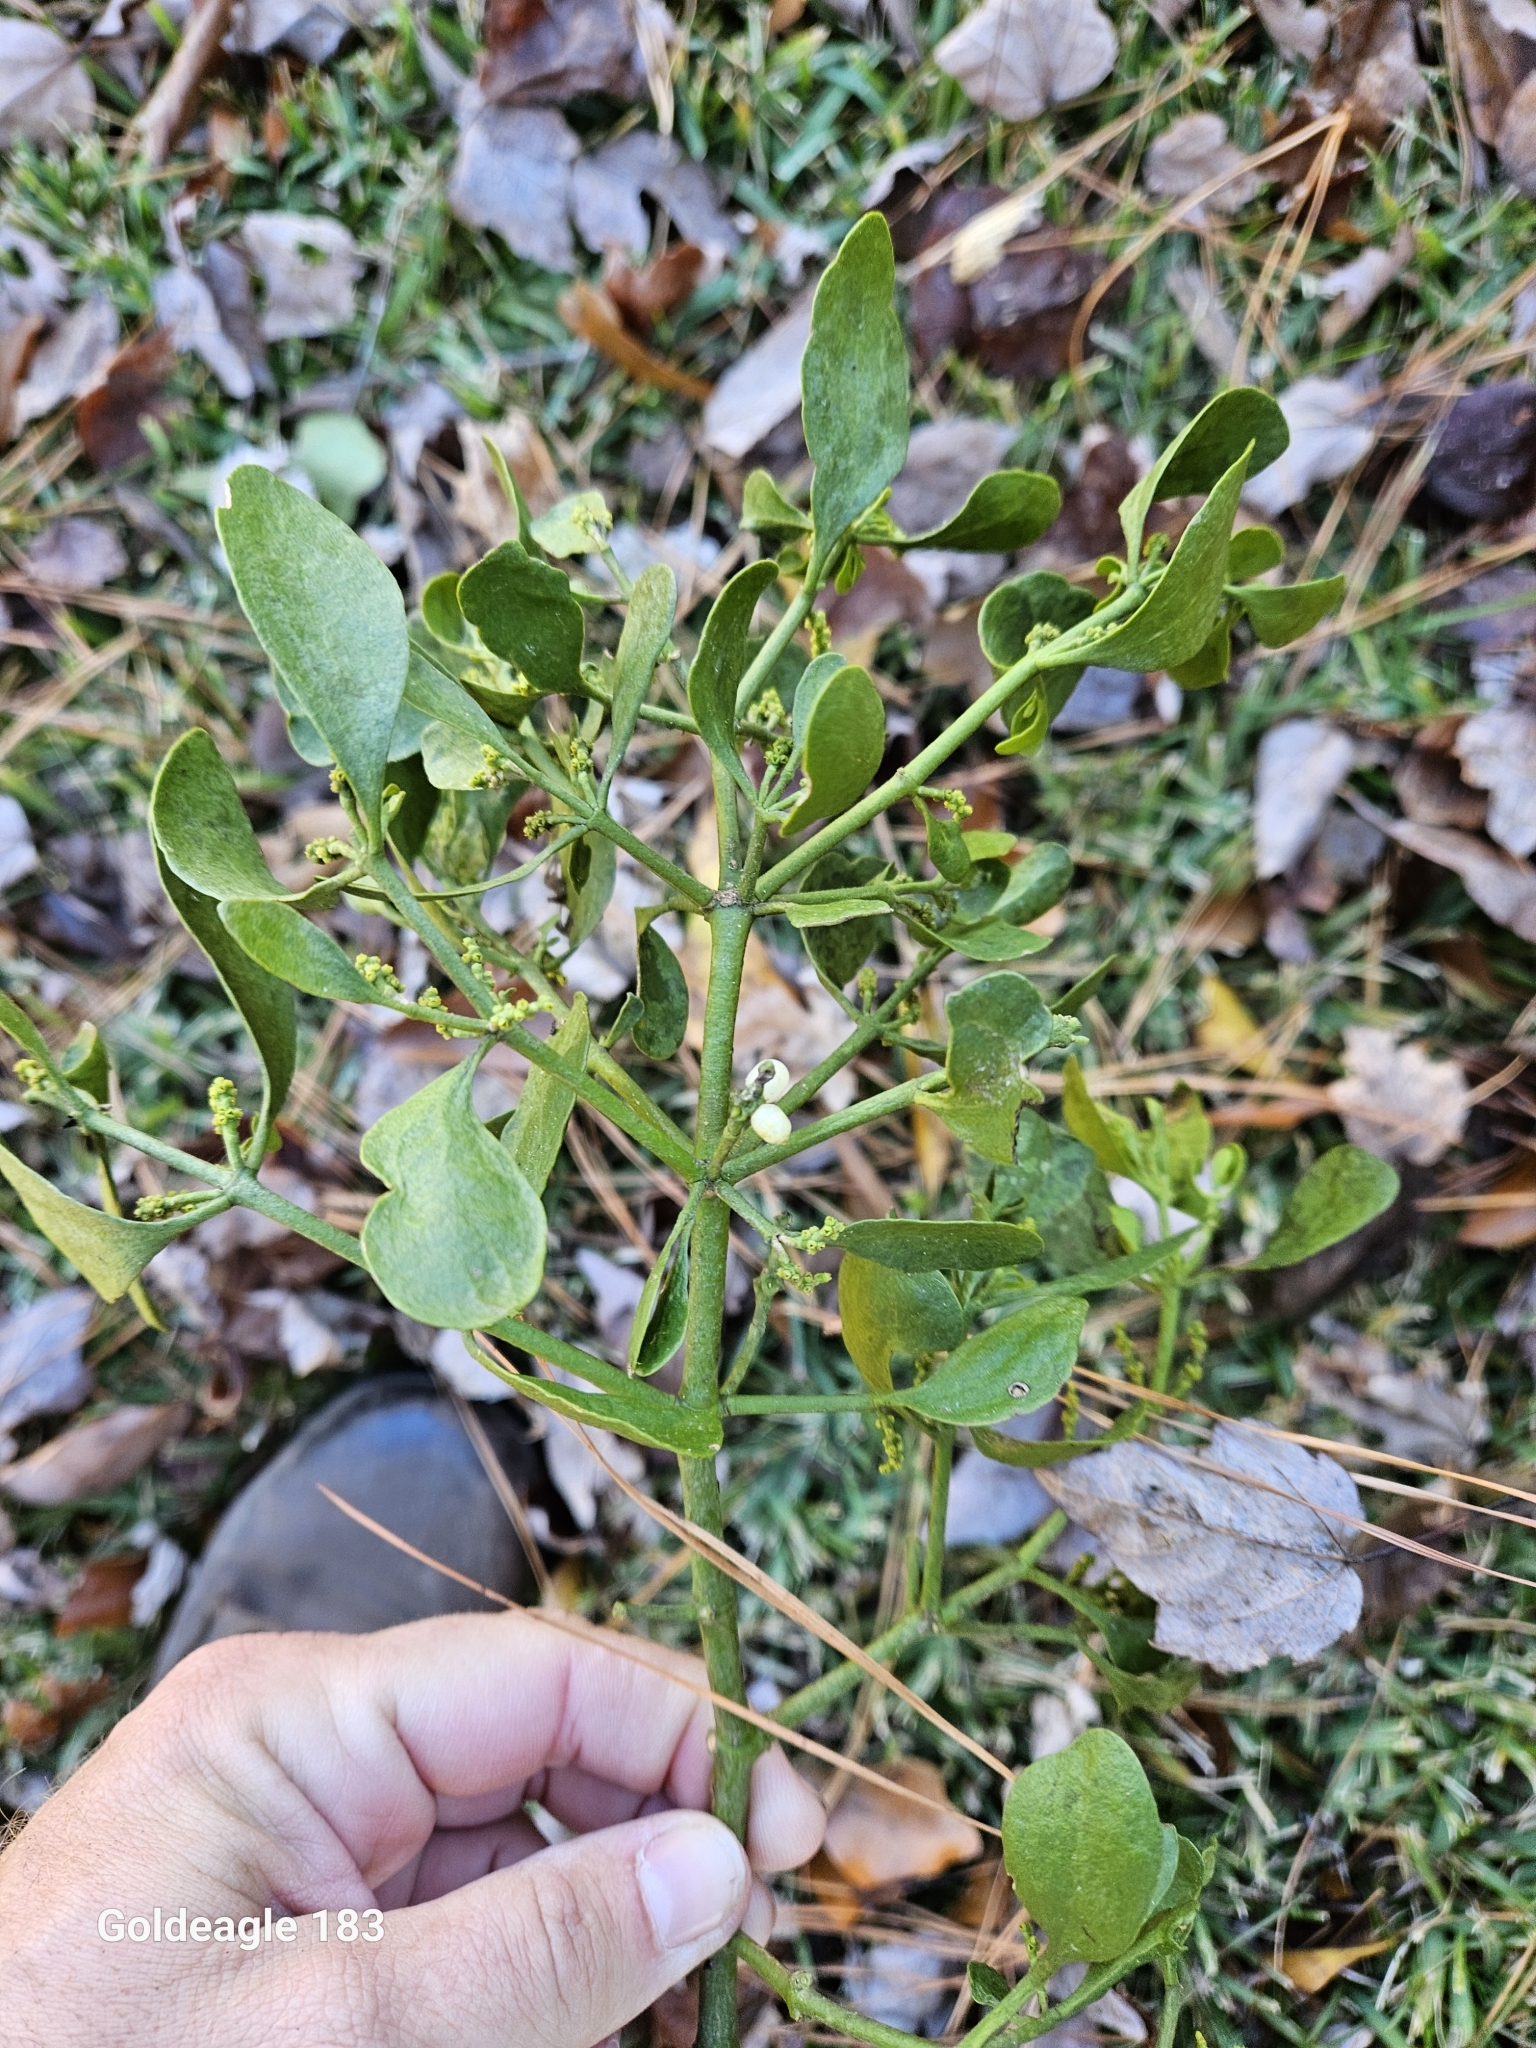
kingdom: Plantae
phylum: Tracheophyta
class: Magnoliopsida
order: Santalales
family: Viscaceae
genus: Phoradendron
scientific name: Phoradendron leucarpum
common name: Pacific mistletoe
